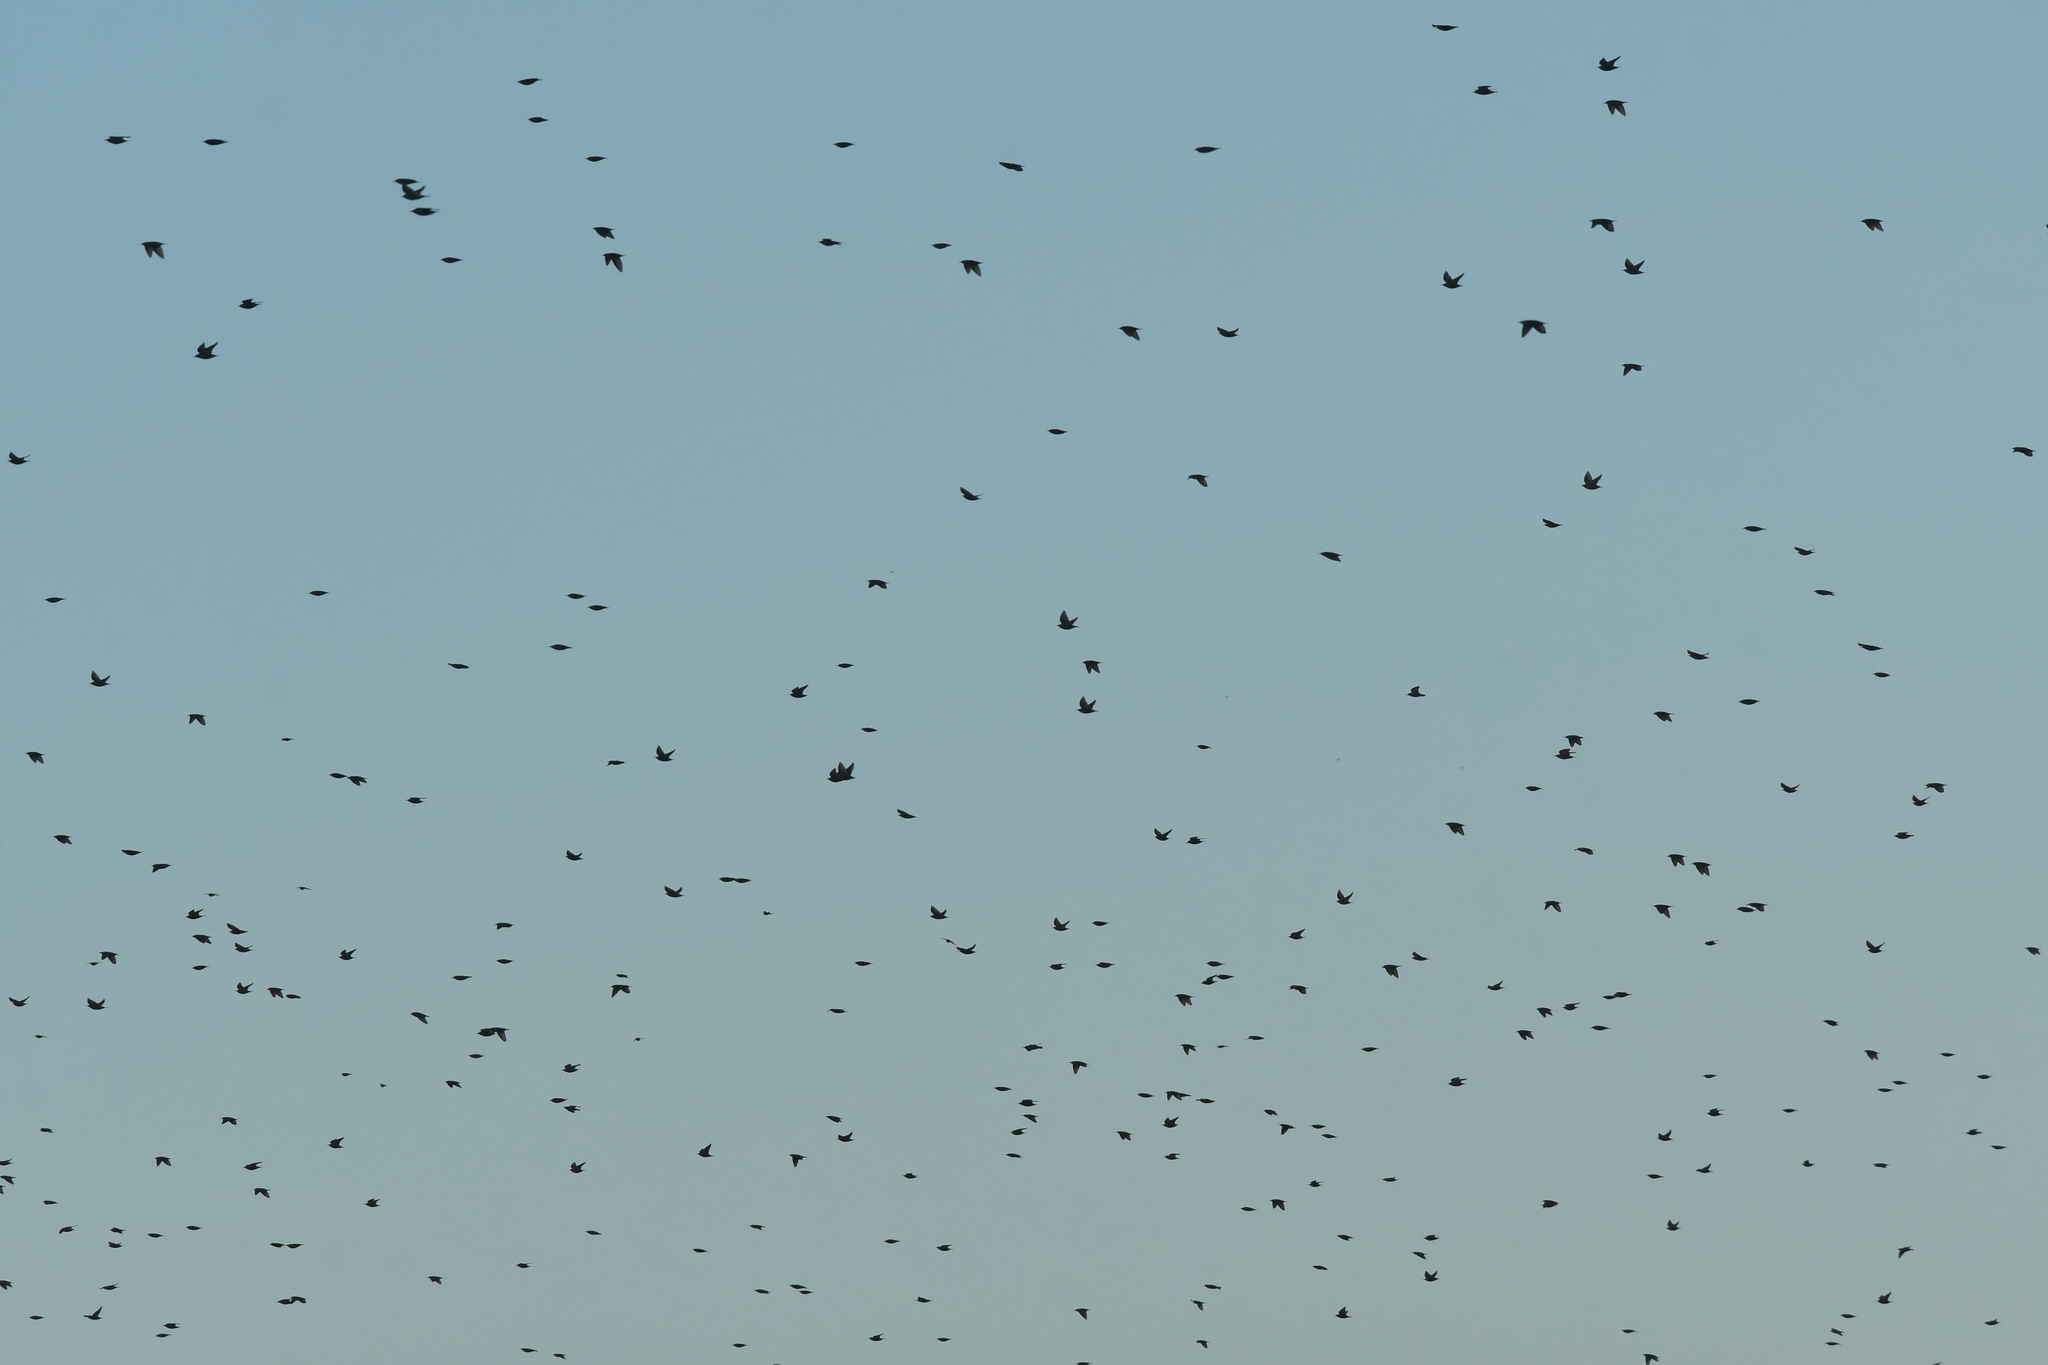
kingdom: Animalia
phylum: Chordata
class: Aves
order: Passeriformes
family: Sturnidae
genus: Sturnus
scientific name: Sturnus vulgaris
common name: Common starling
